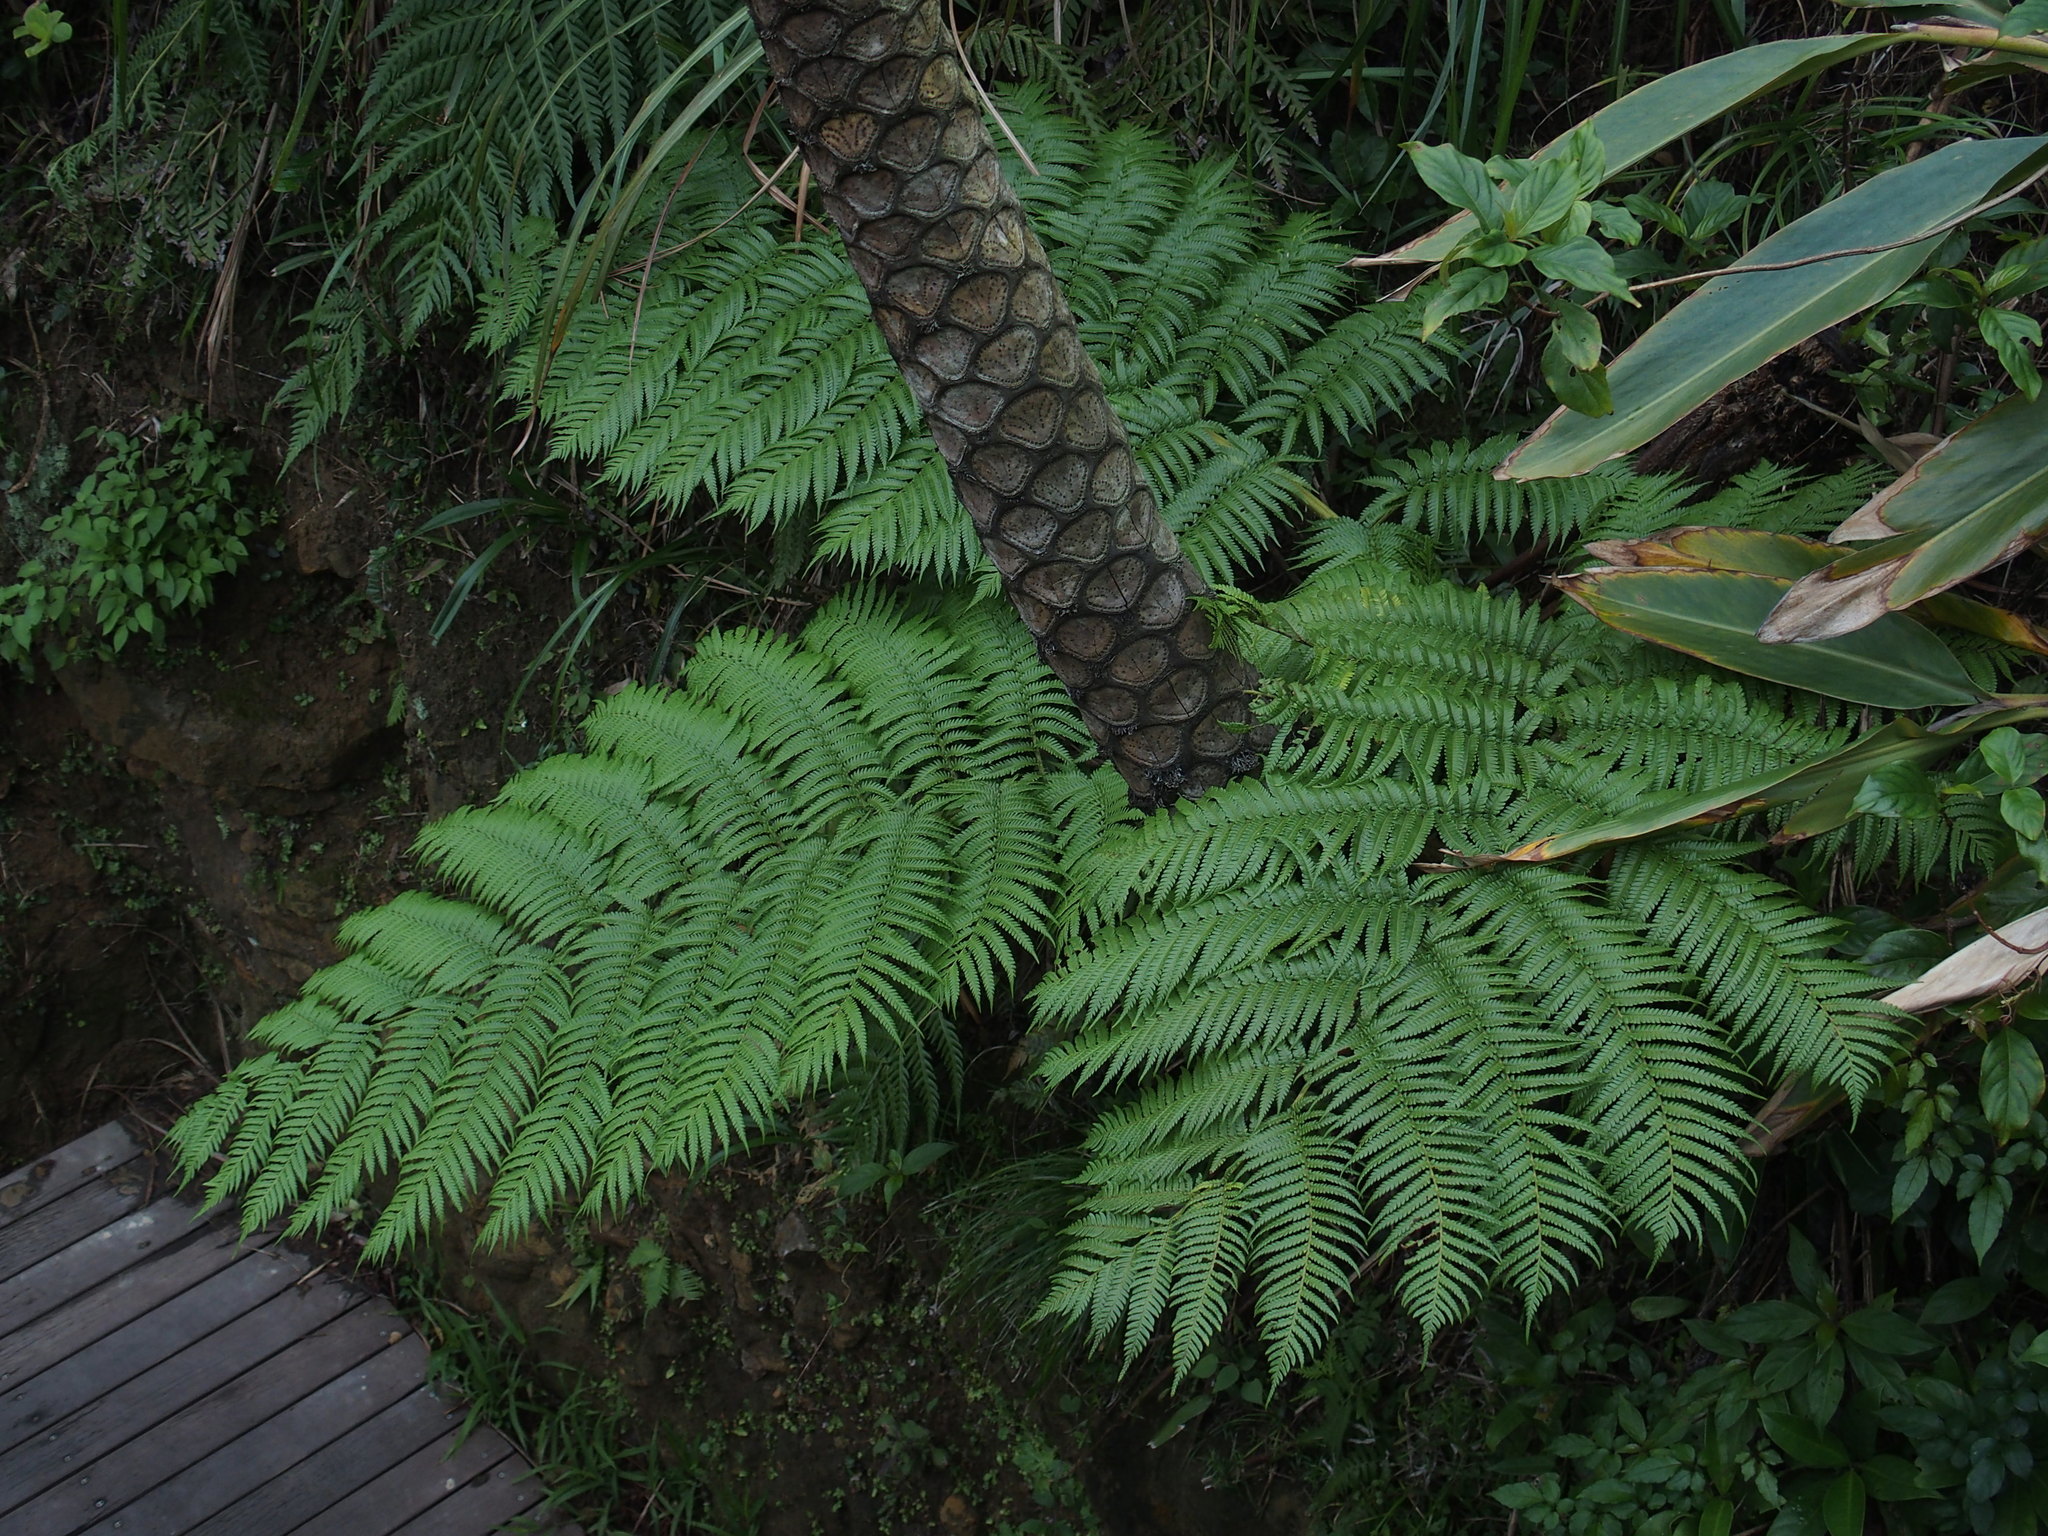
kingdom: Plantae
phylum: Tracheophyta
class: Polypodiopsida
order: Cyatheales
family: Cyatheaceae
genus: Alsophila
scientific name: Alsophila lepifera
